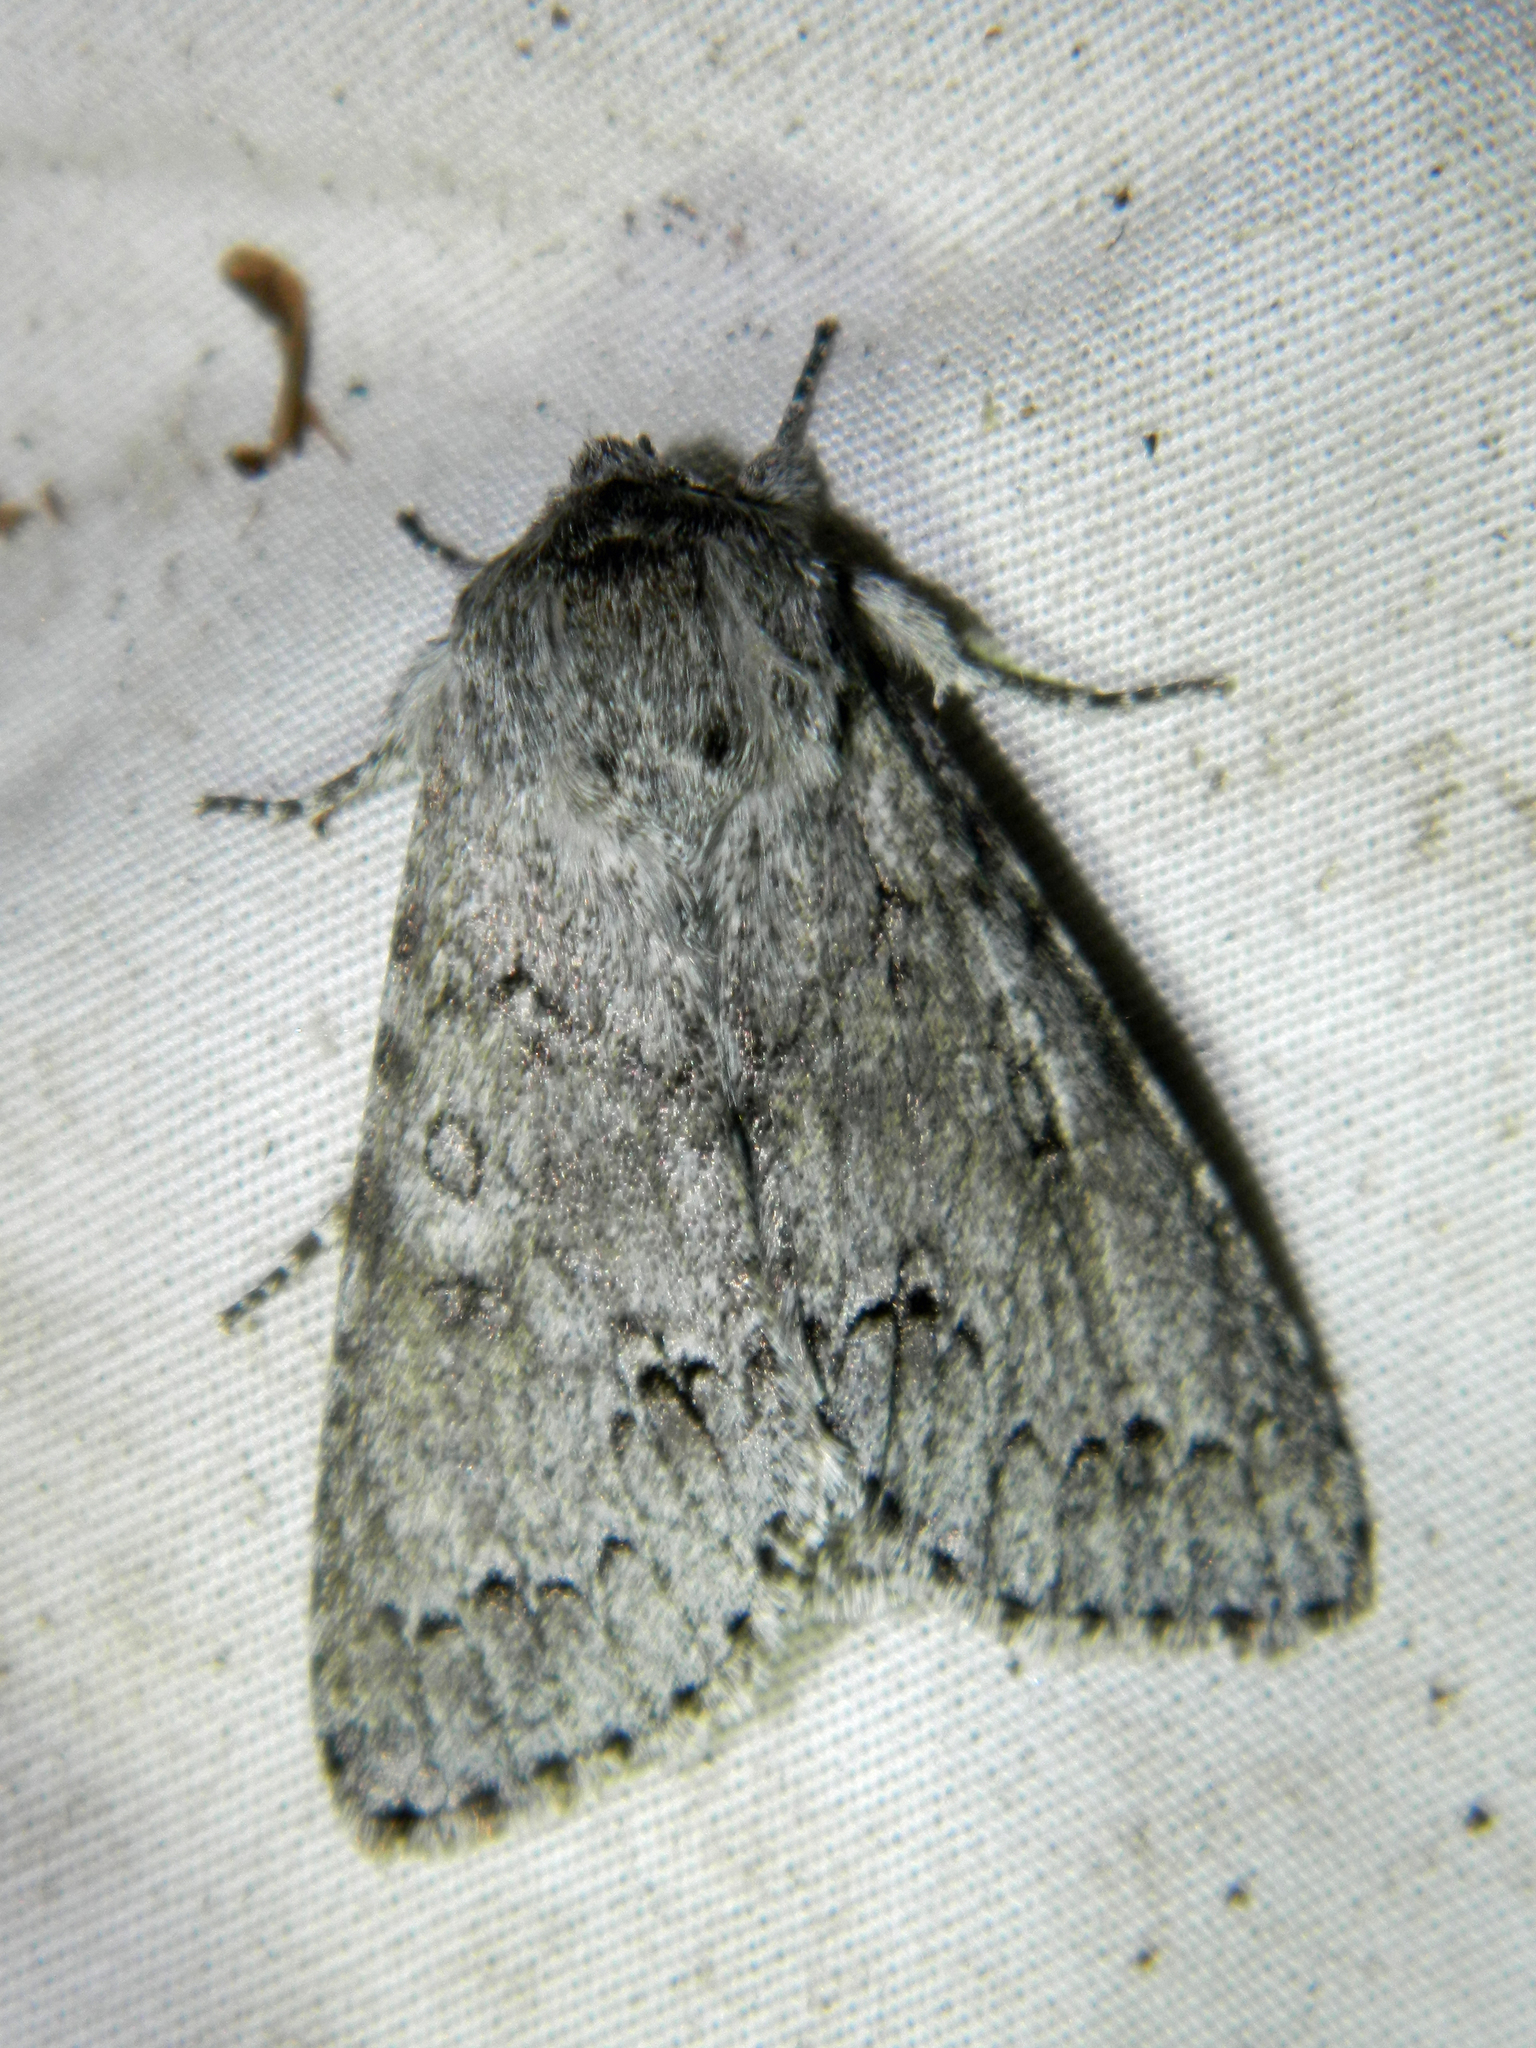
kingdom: Animalia
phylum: Arthropoda
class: Insecta
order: Lepidoptera
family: Noctuidae
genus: Acronicta
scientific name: Acronicta insita
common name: Large gray dagger
